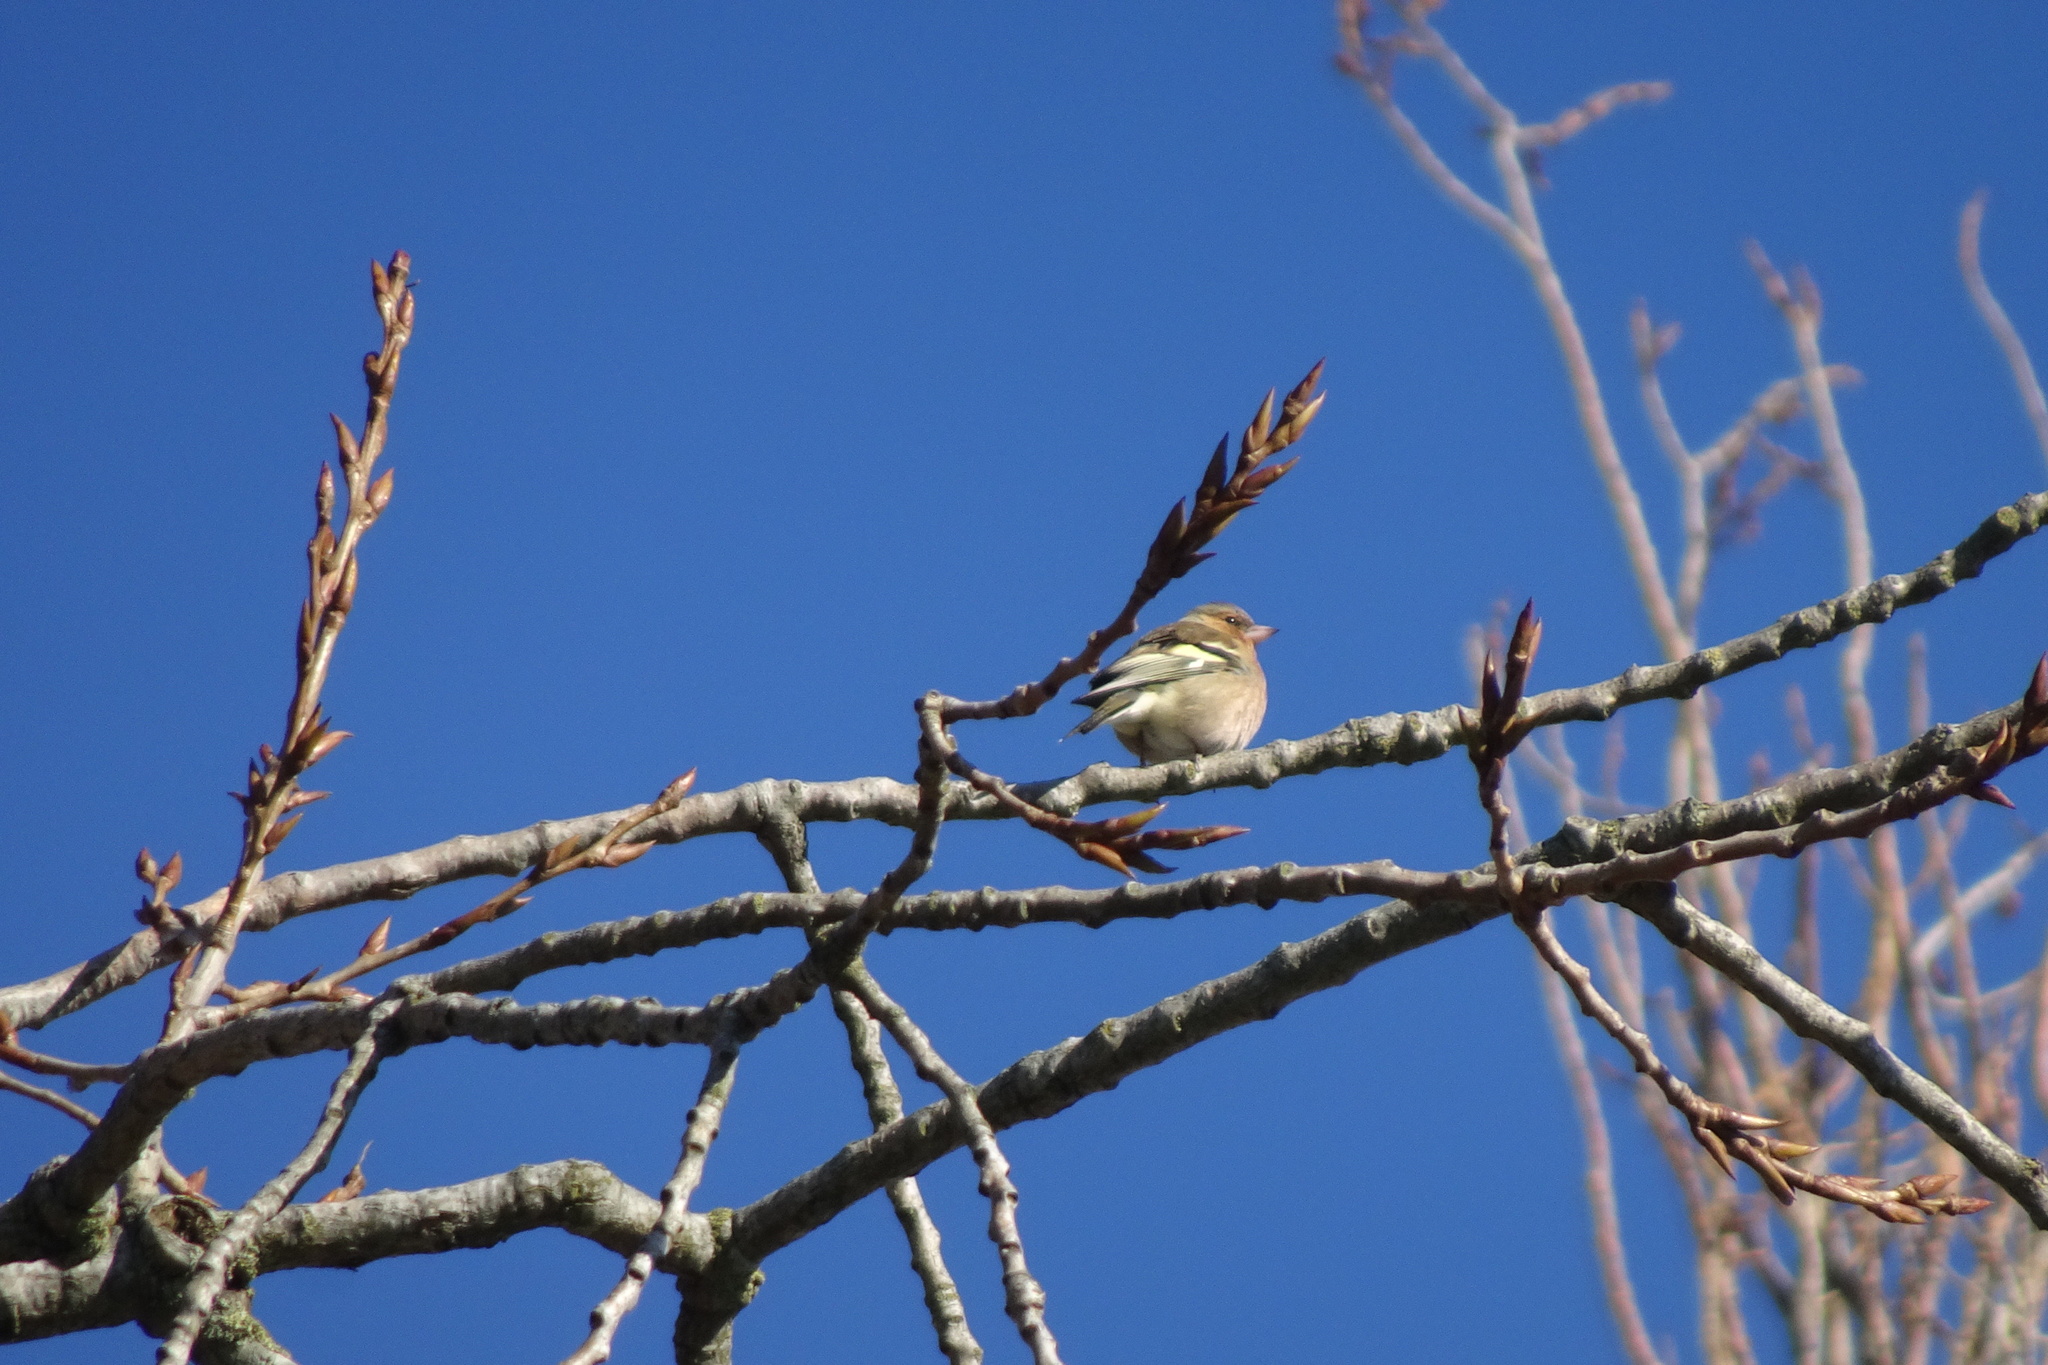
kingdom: Animalia
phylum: Chordata
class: Aves
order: Passeriformes
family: Fringillidae
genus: Fringilla
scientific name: Fringilla coelebs
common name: Common chaffinch
